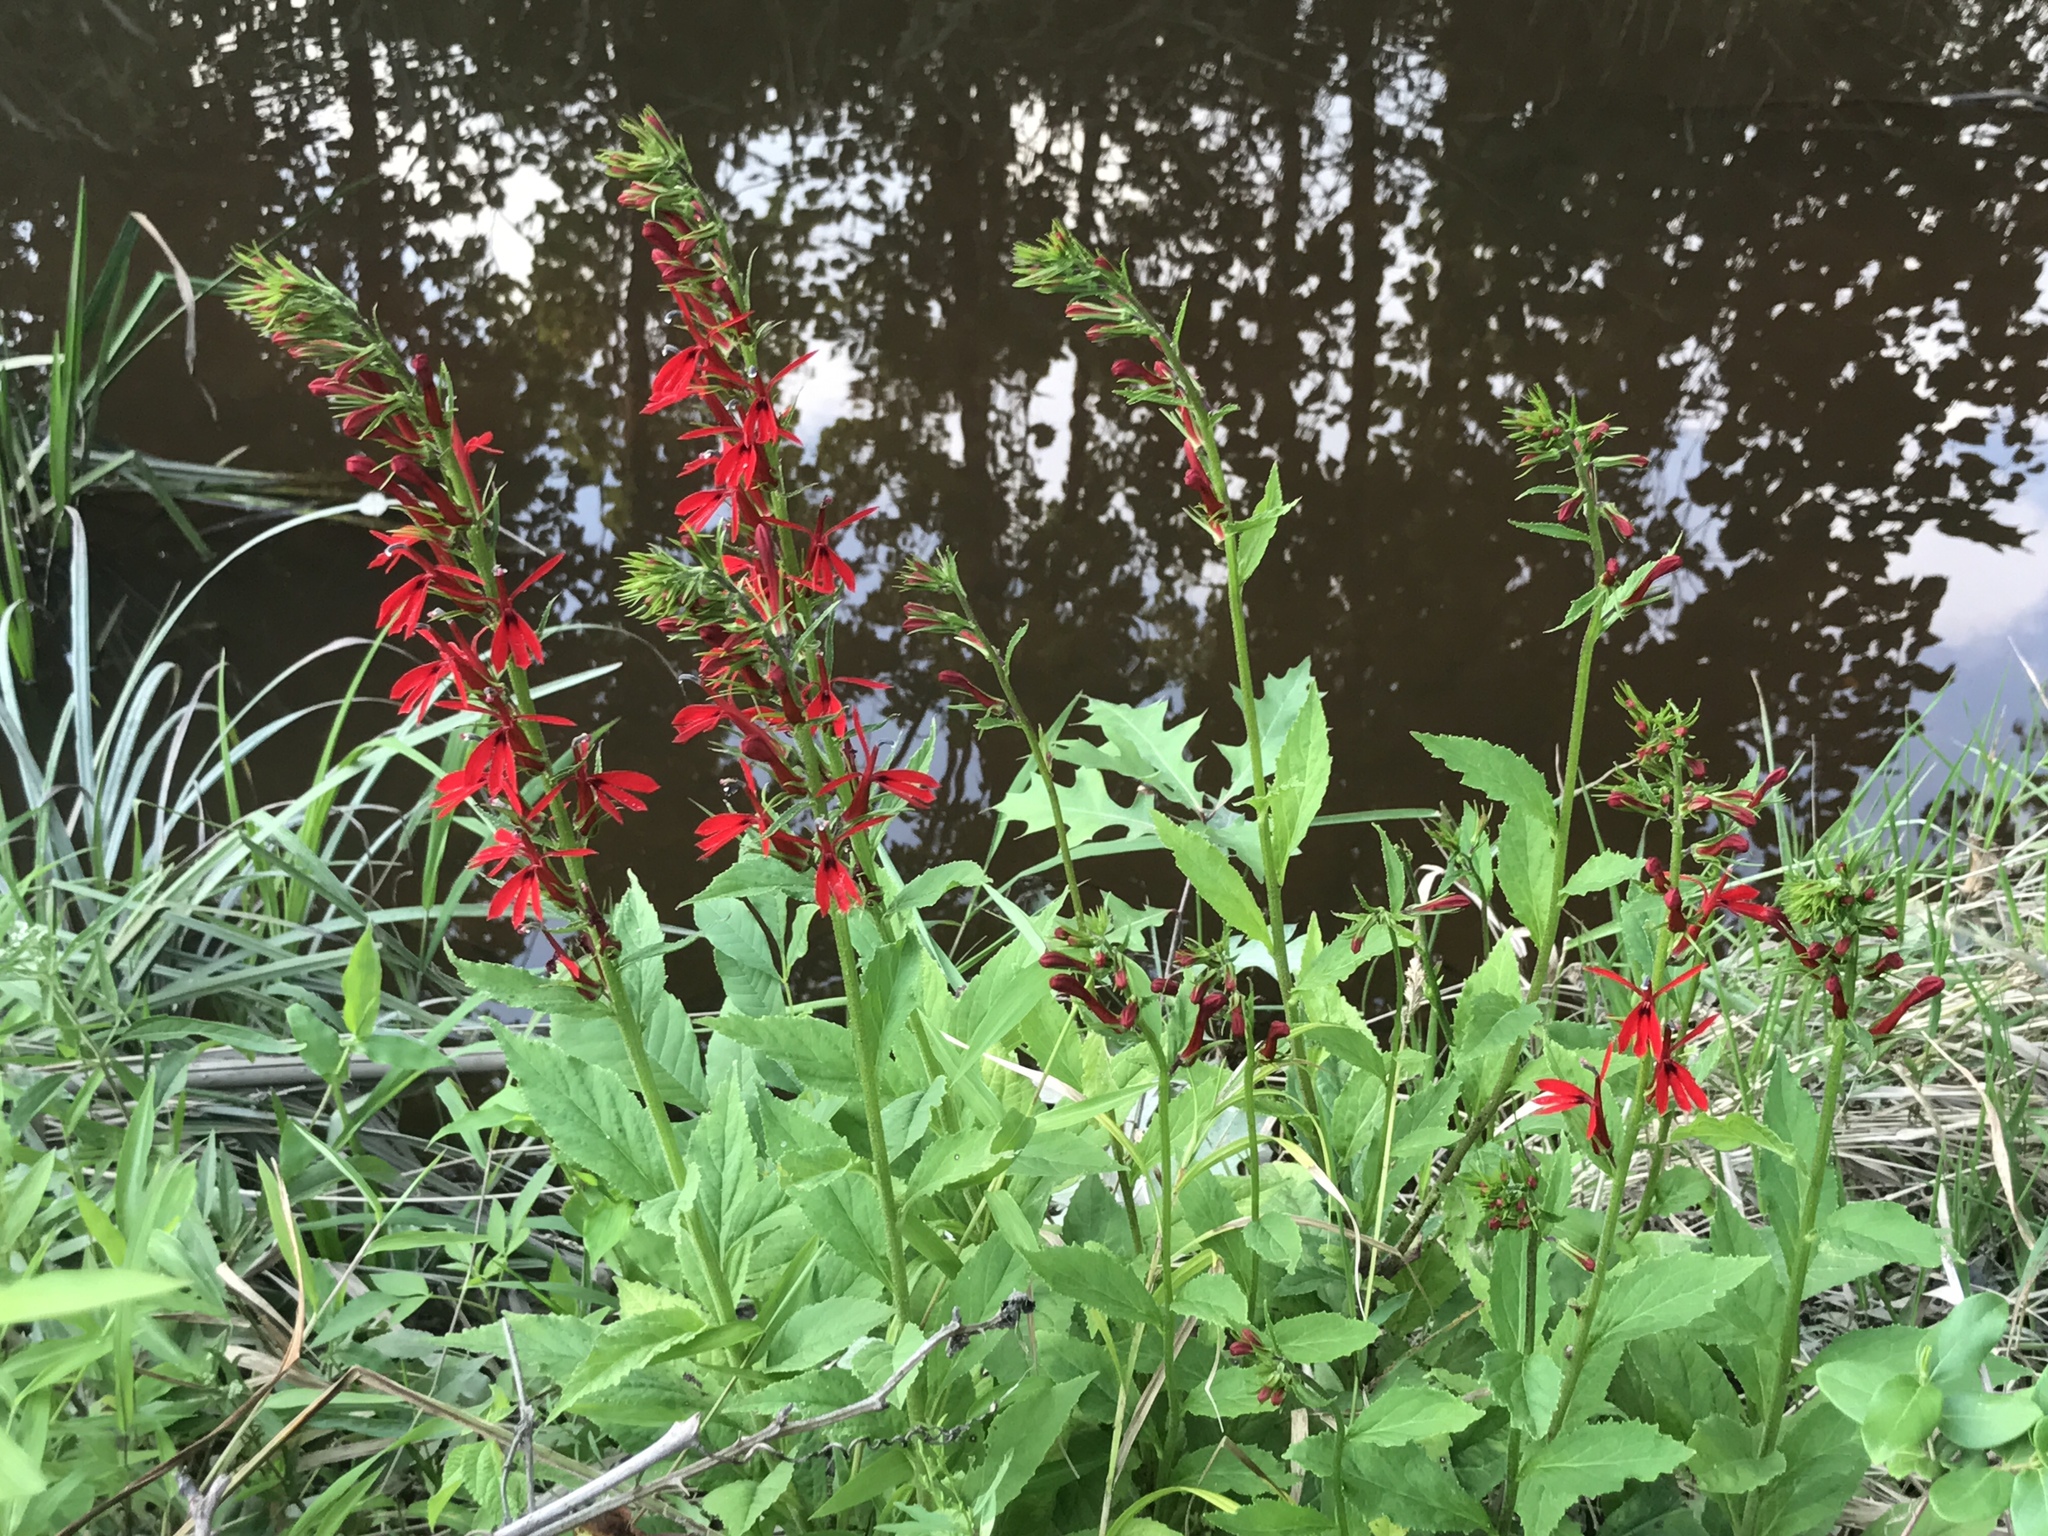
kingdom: Plantae
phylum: Tracheophyta
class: Magnoliopsida
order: Asterales
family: Campanulaceae
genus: Lobelia
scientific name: Lobelia cardinalis
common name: Cardinal flower
